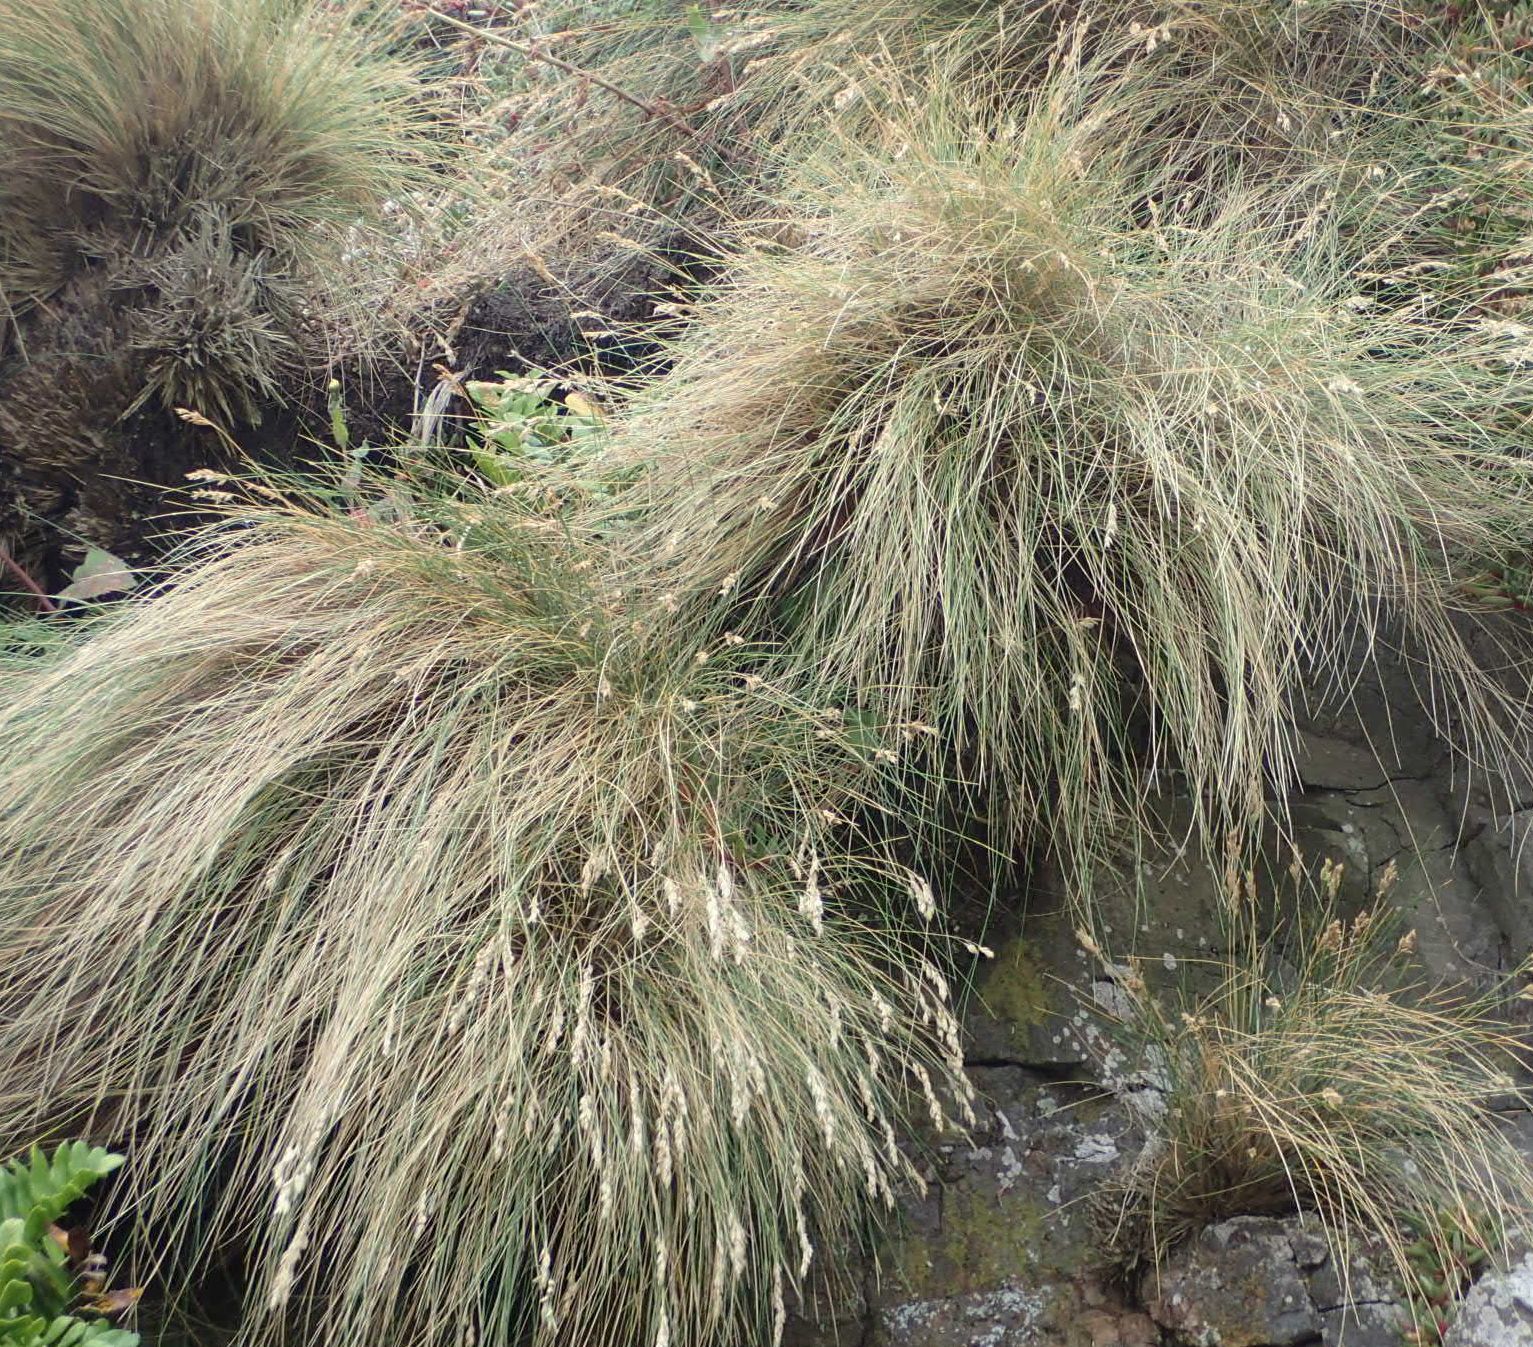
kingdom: Plantae
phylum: Tracheophyta
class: Liliopsida
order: Poales
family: Poaceae
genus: Poa
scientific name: Poa astonii
